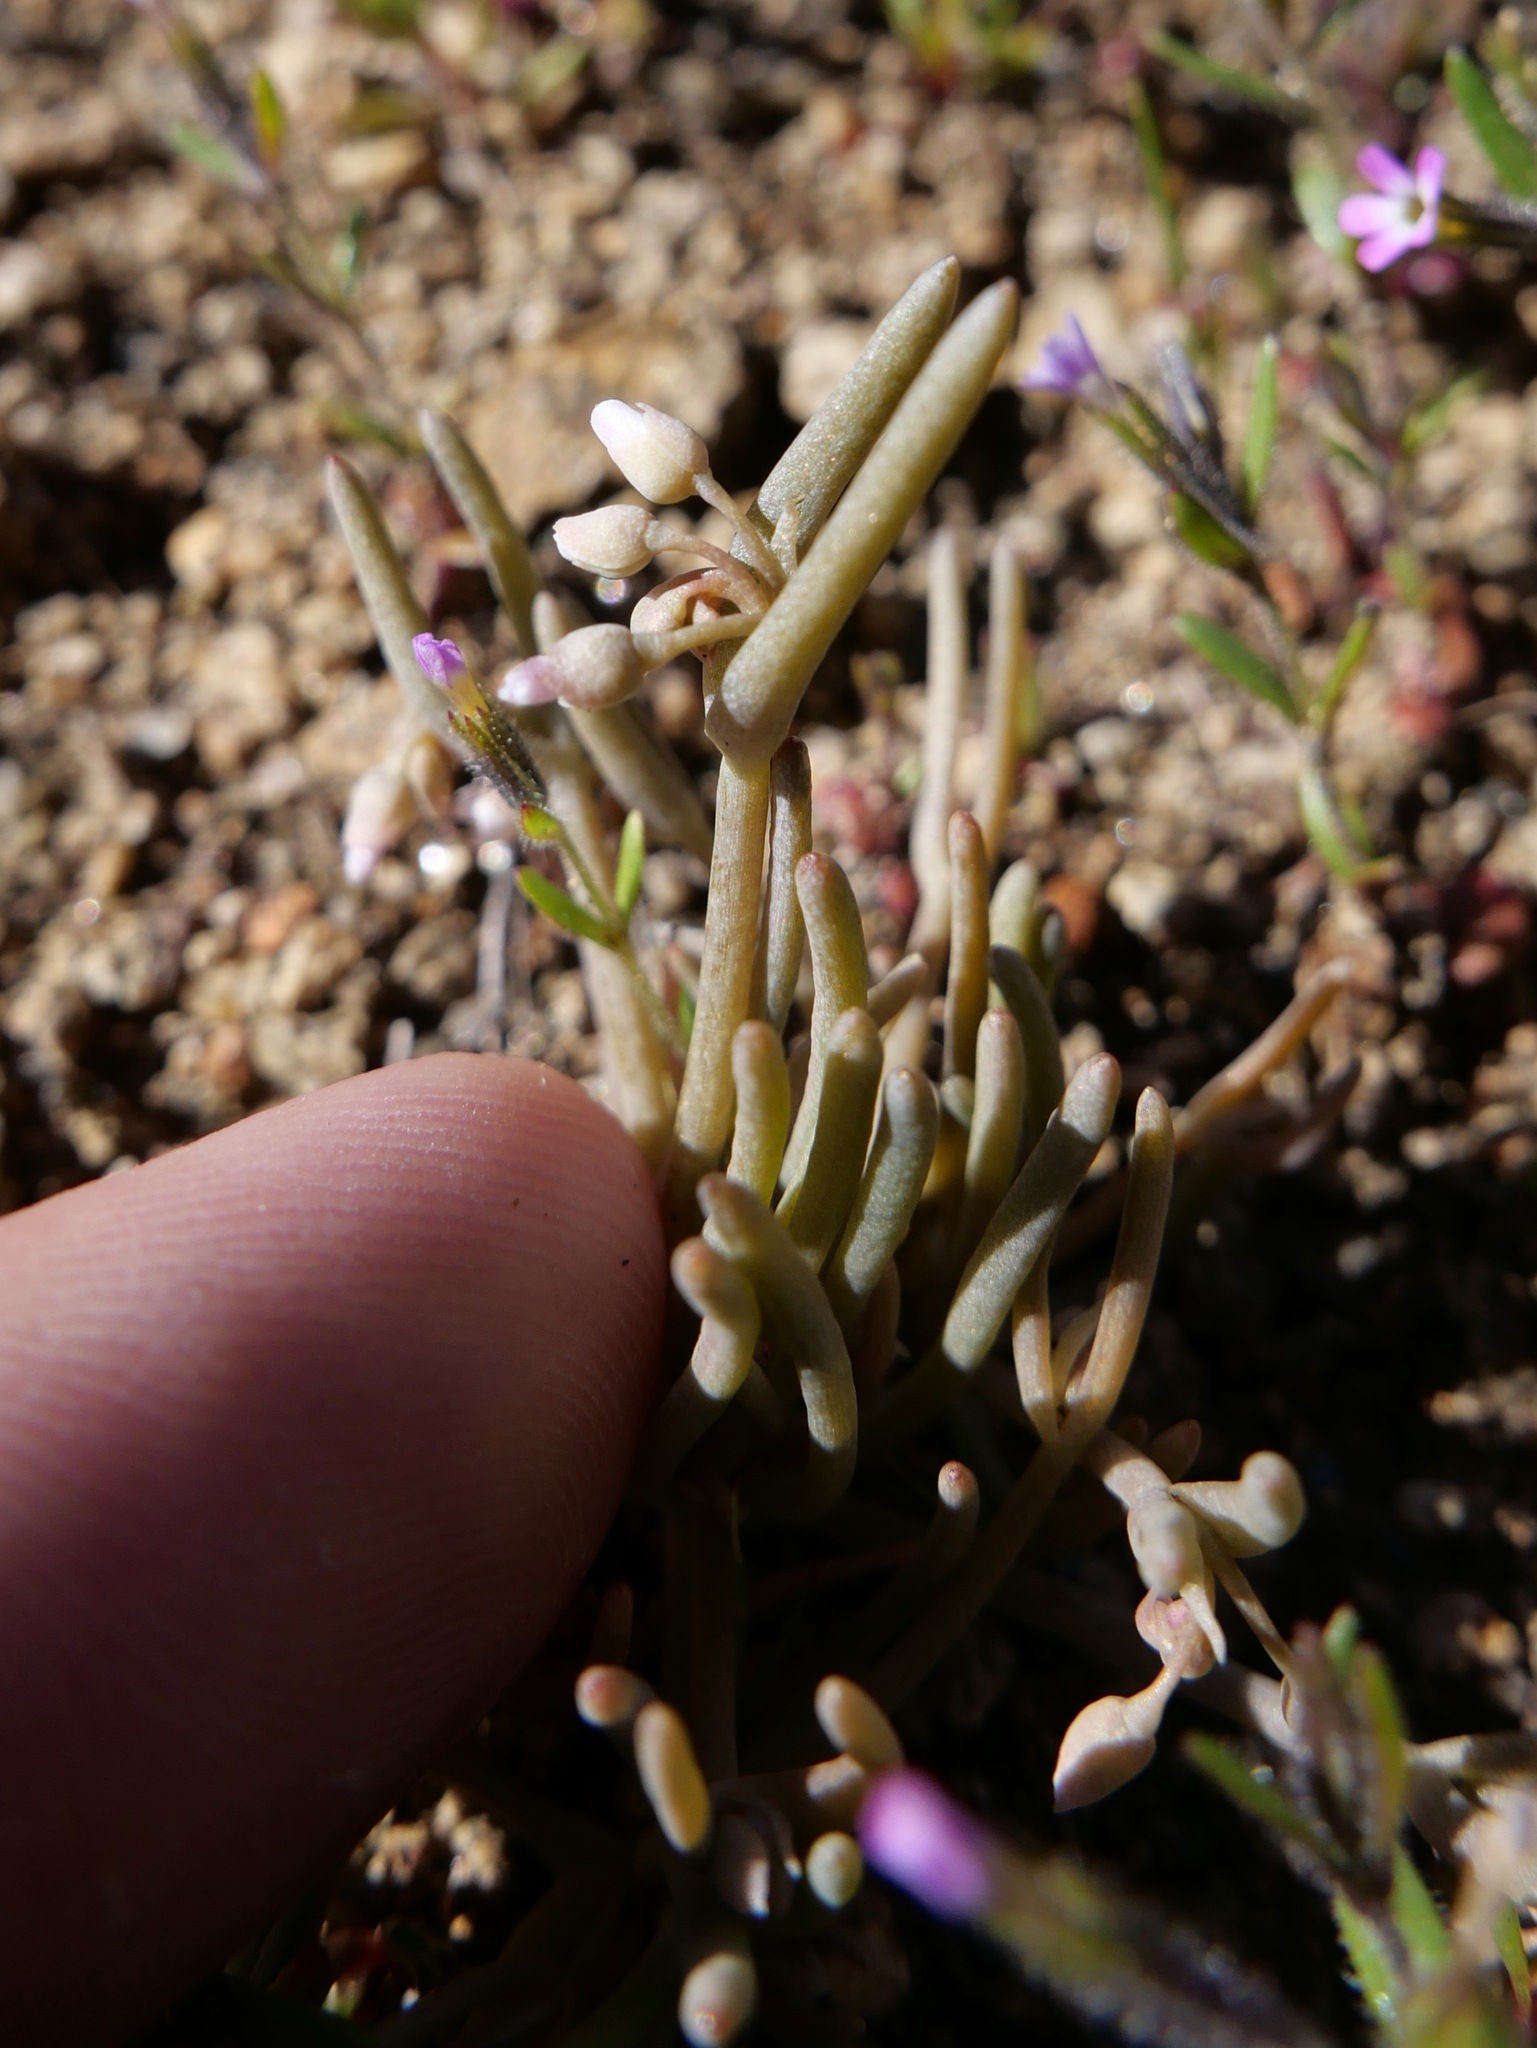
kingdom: Plantae
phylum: Tracheophyta
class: Magnoliopsida
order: Caryophyllales
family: Montiaceae
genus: Claytonia
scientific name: Claytonia exigua
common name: Pale spring beauty
